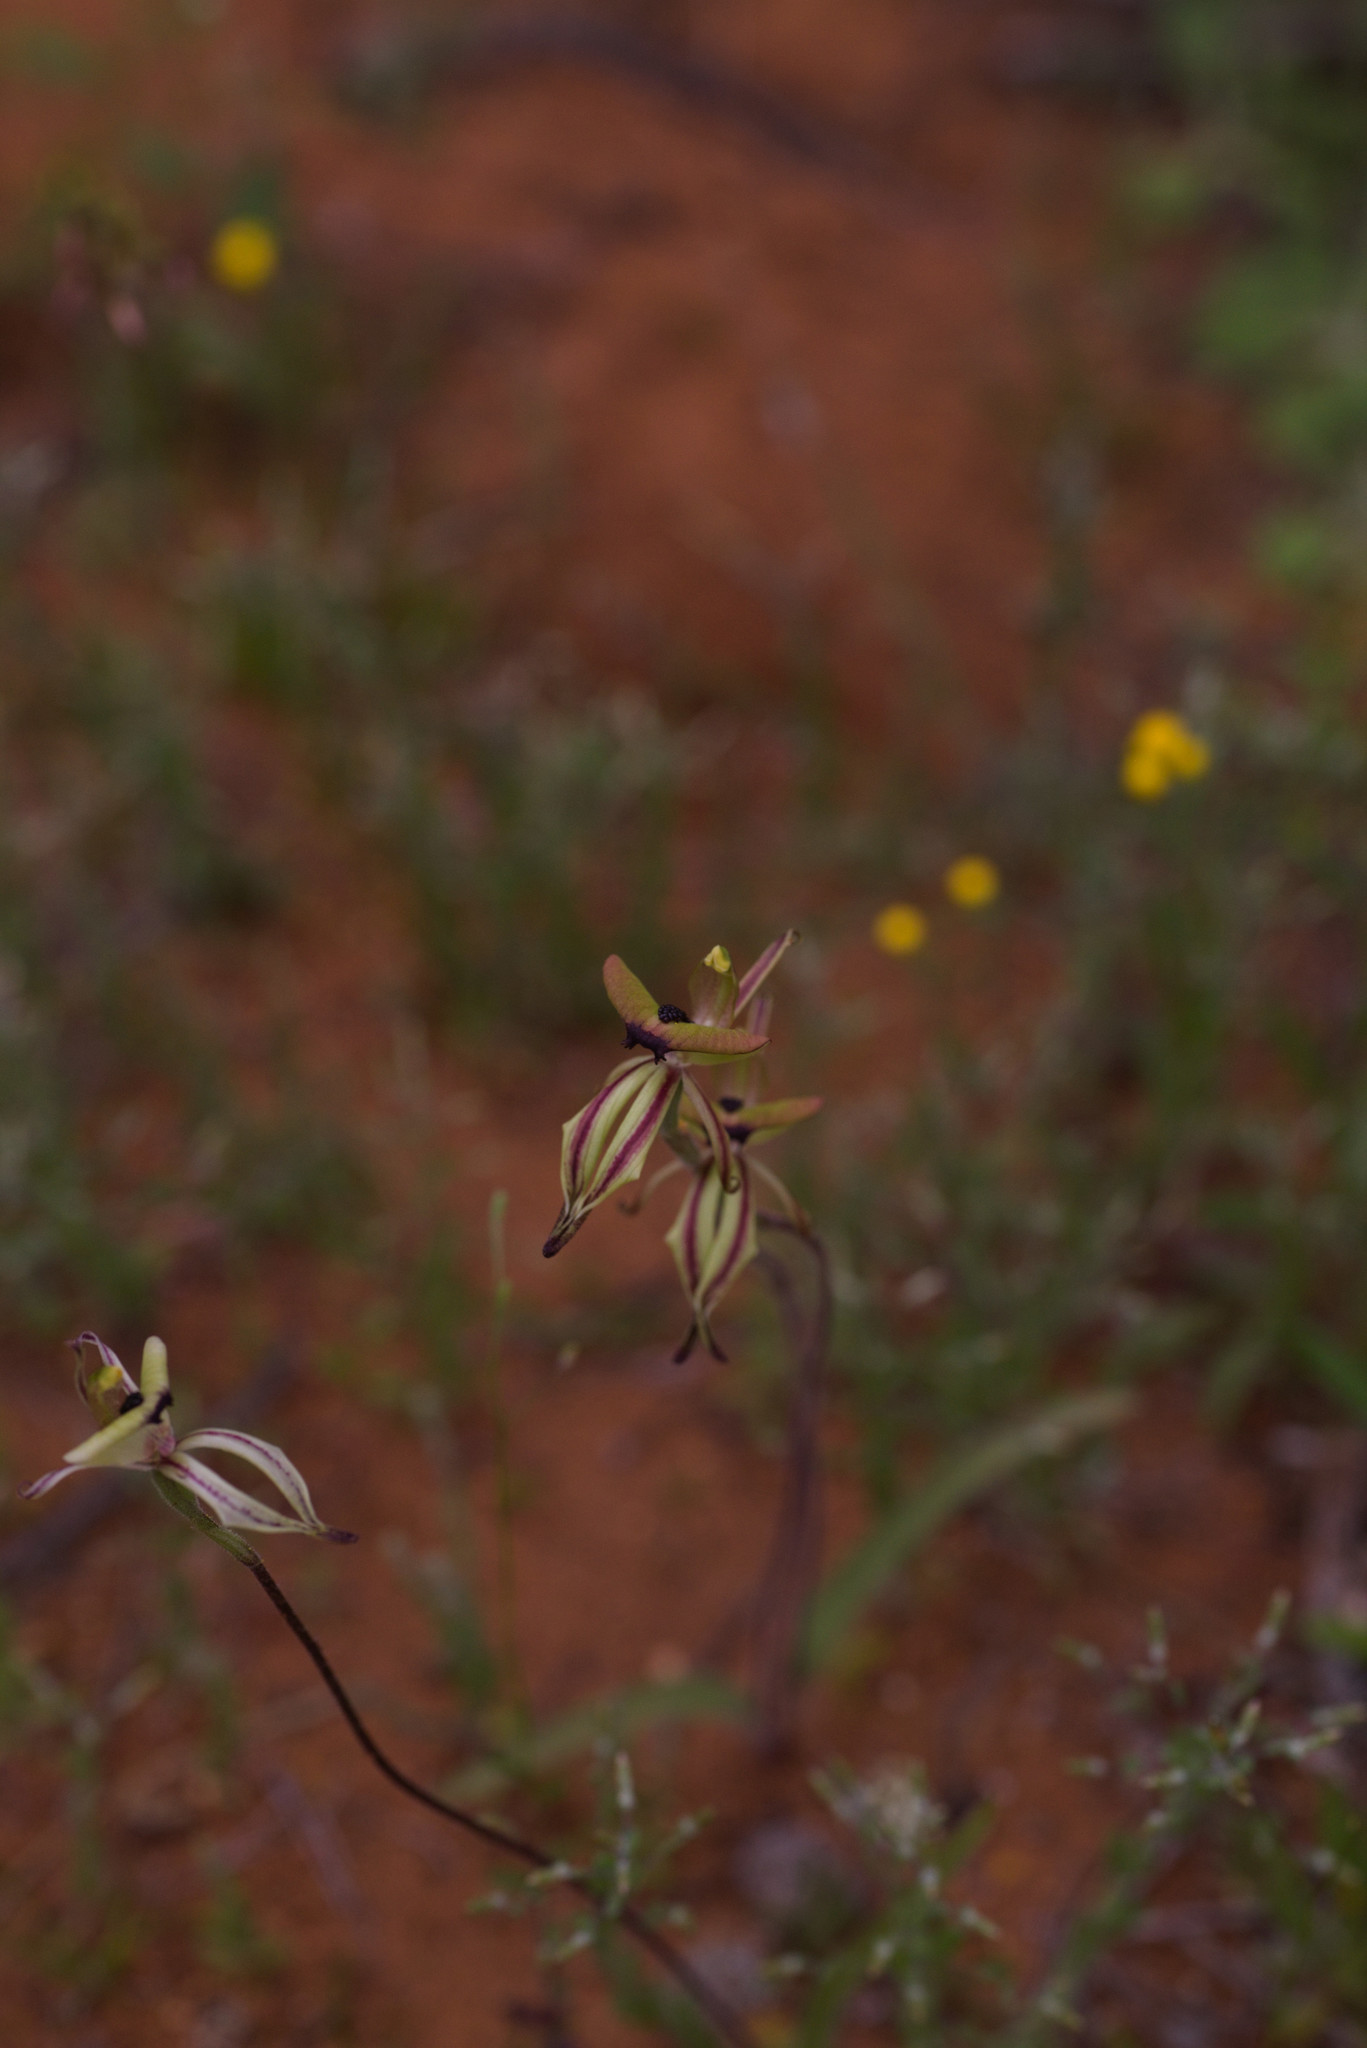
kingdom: Plantae
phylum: Tracheophyta
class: Liliopsida
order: Asparagales
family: Orchidaceae
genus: Caladenia
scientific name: Caladenia roei
